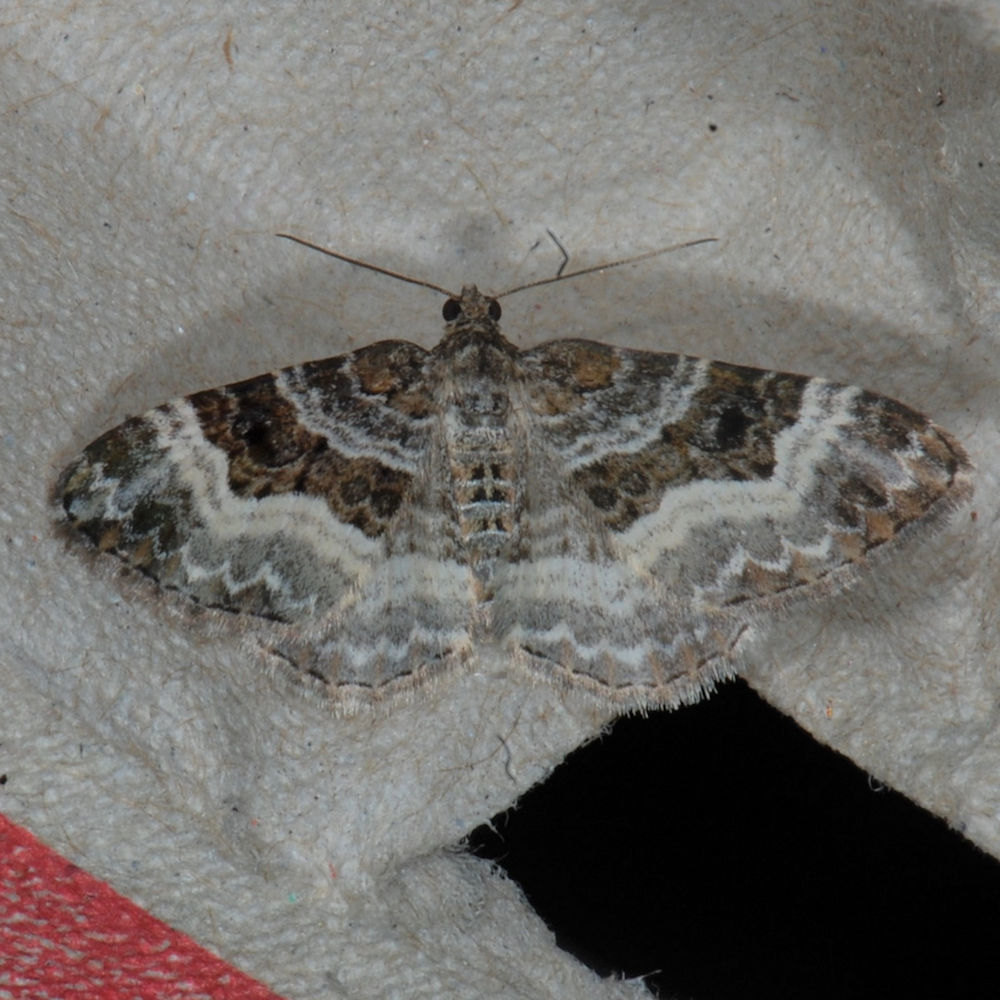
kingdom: Animalia
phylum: Arthropoda
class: Insecta
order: Lepidoptera
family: Geometridae
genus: Epirrhoe
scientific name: Epirrhoe alternata
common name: Common carpet
